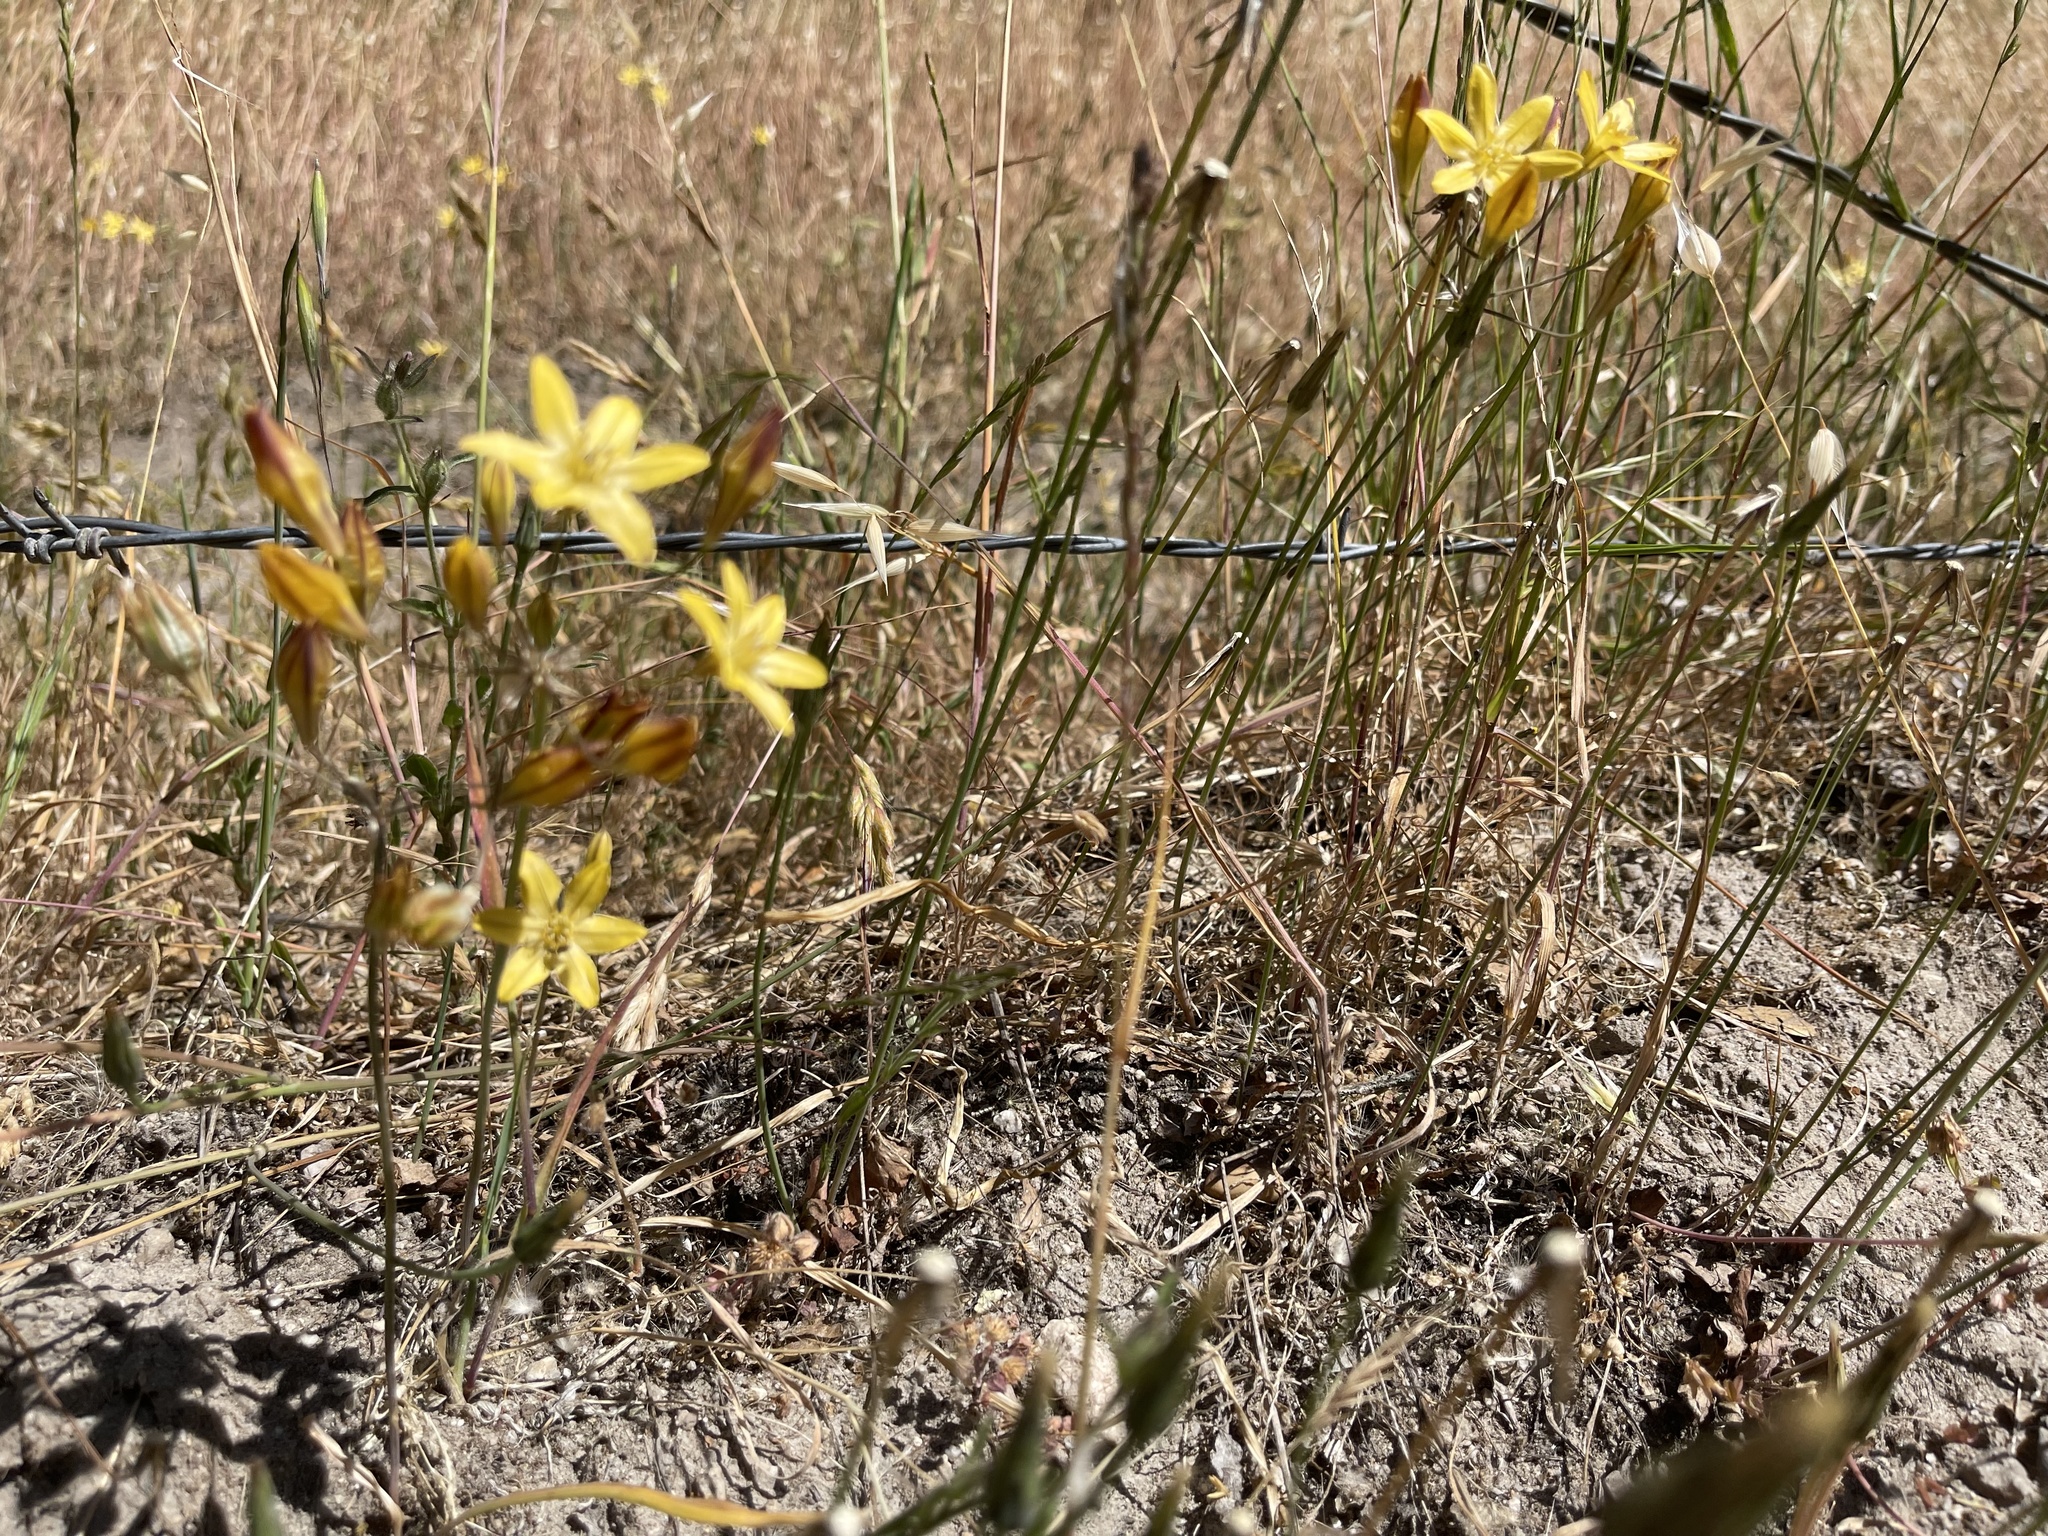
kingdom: Plantae
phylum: Tracheophyta
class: Liliopsida
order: Asparagales
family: Asparagaceae
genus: Triteleia
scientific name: Triteleia ixioides
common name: Yellow-brodiaea
